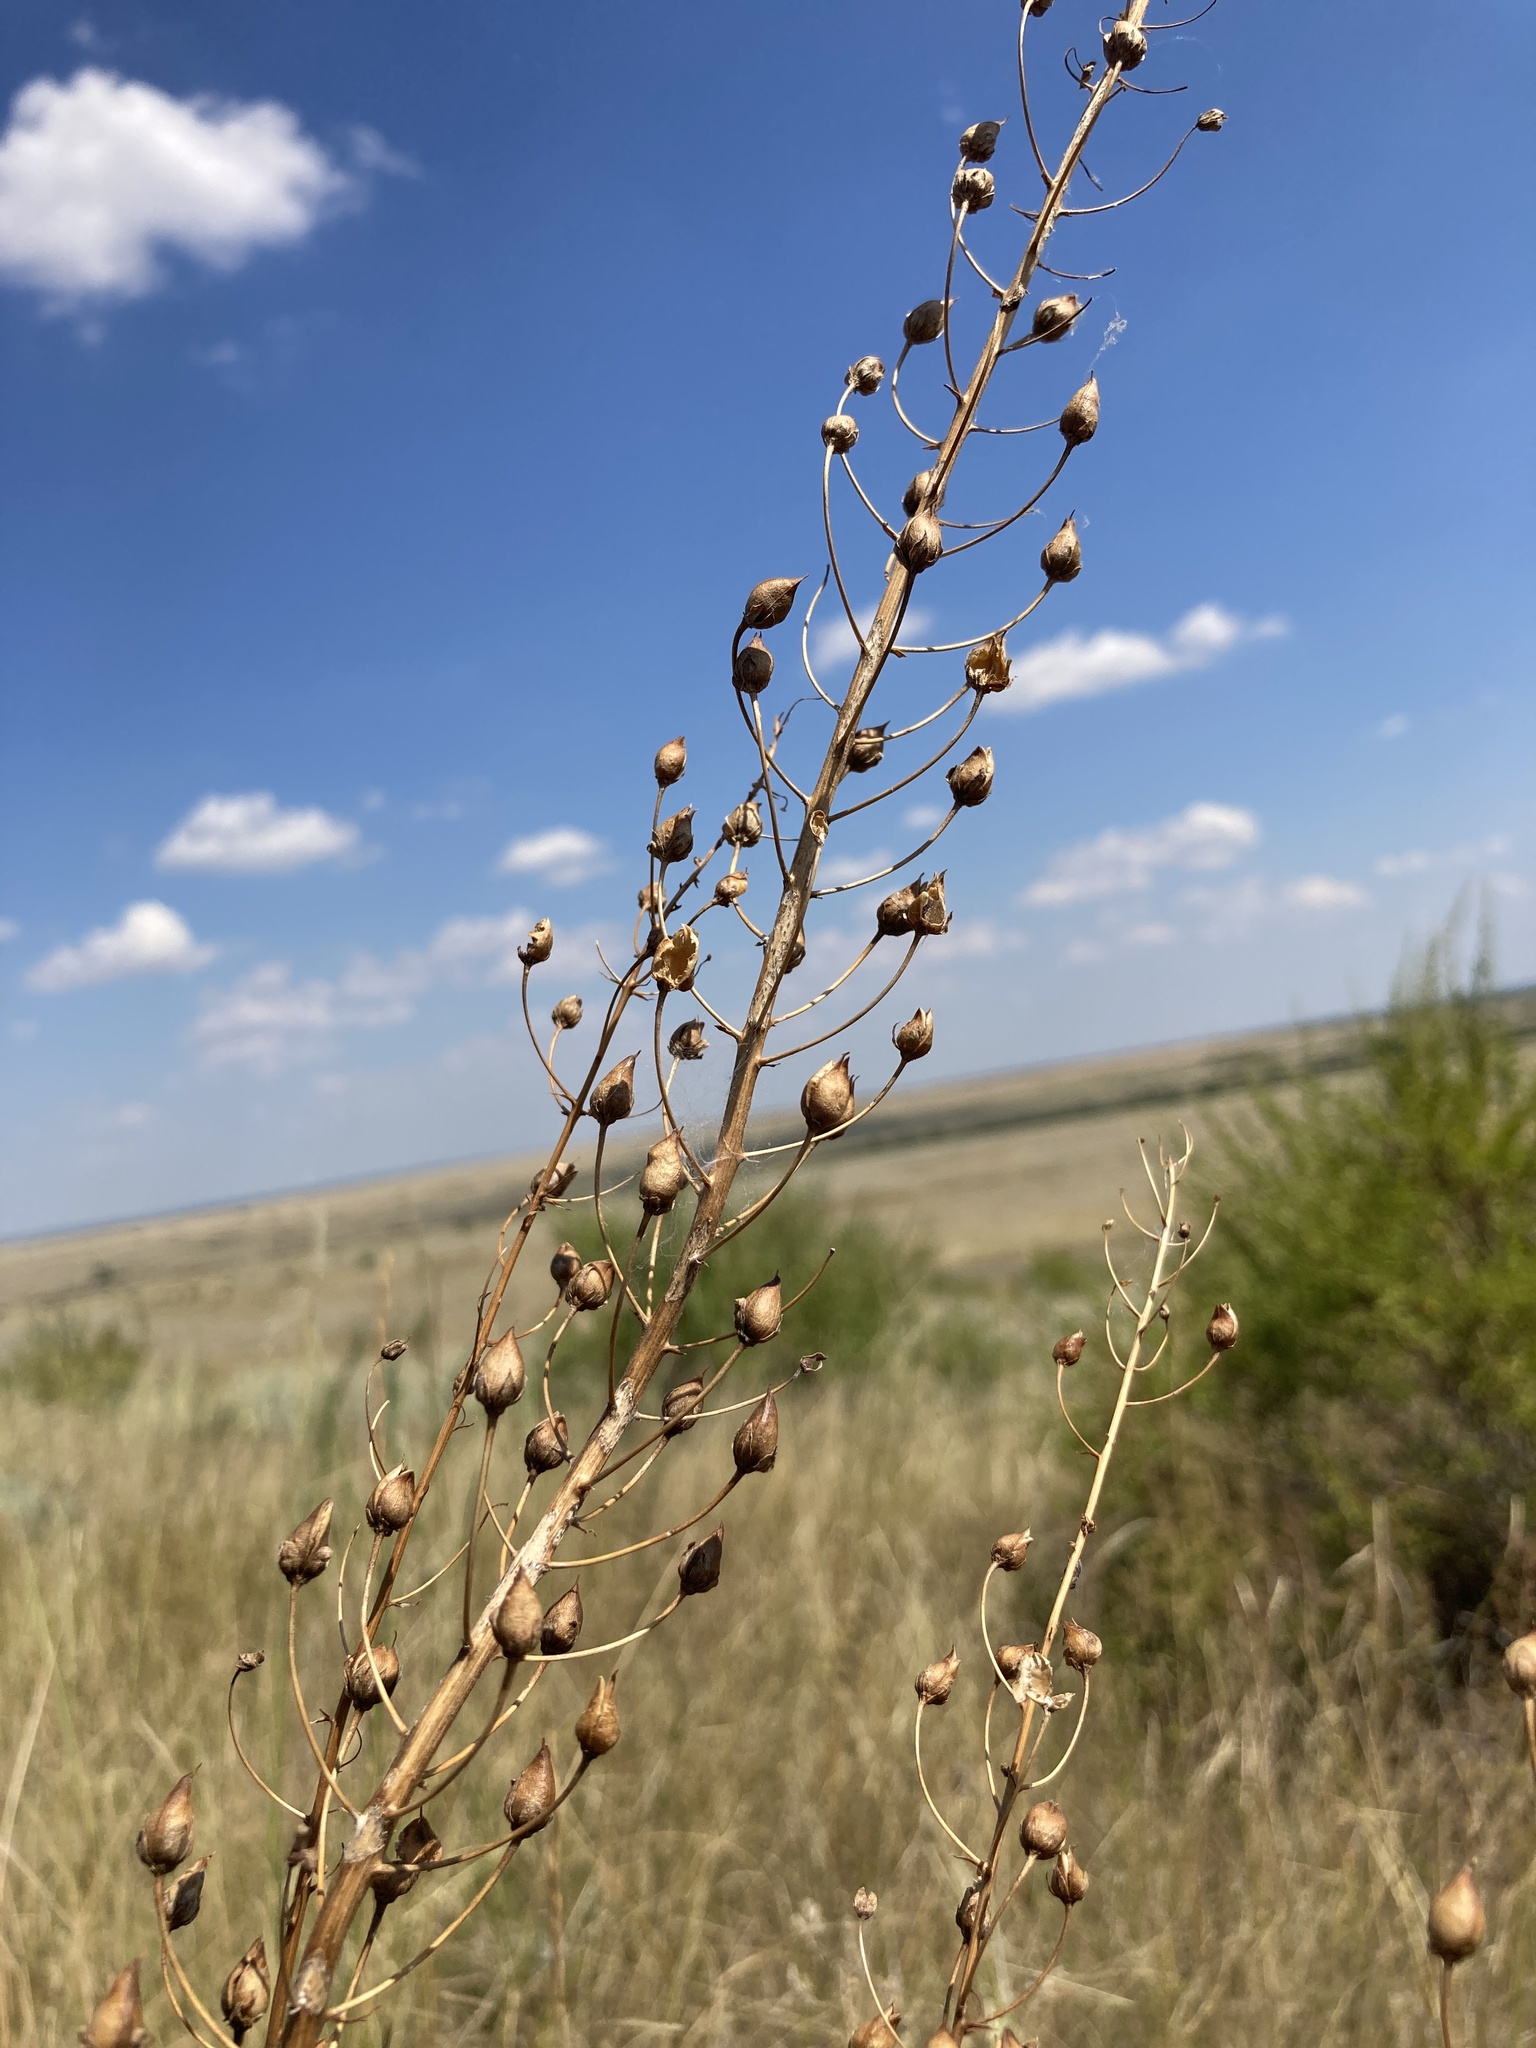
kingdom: Plantae
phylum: Tracheophyta
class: Magnoliopsida
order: Lamiales
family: Scrophulariaceae
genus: Verbascum
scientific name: Verbascum phoeniceum
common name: Purple mullein
